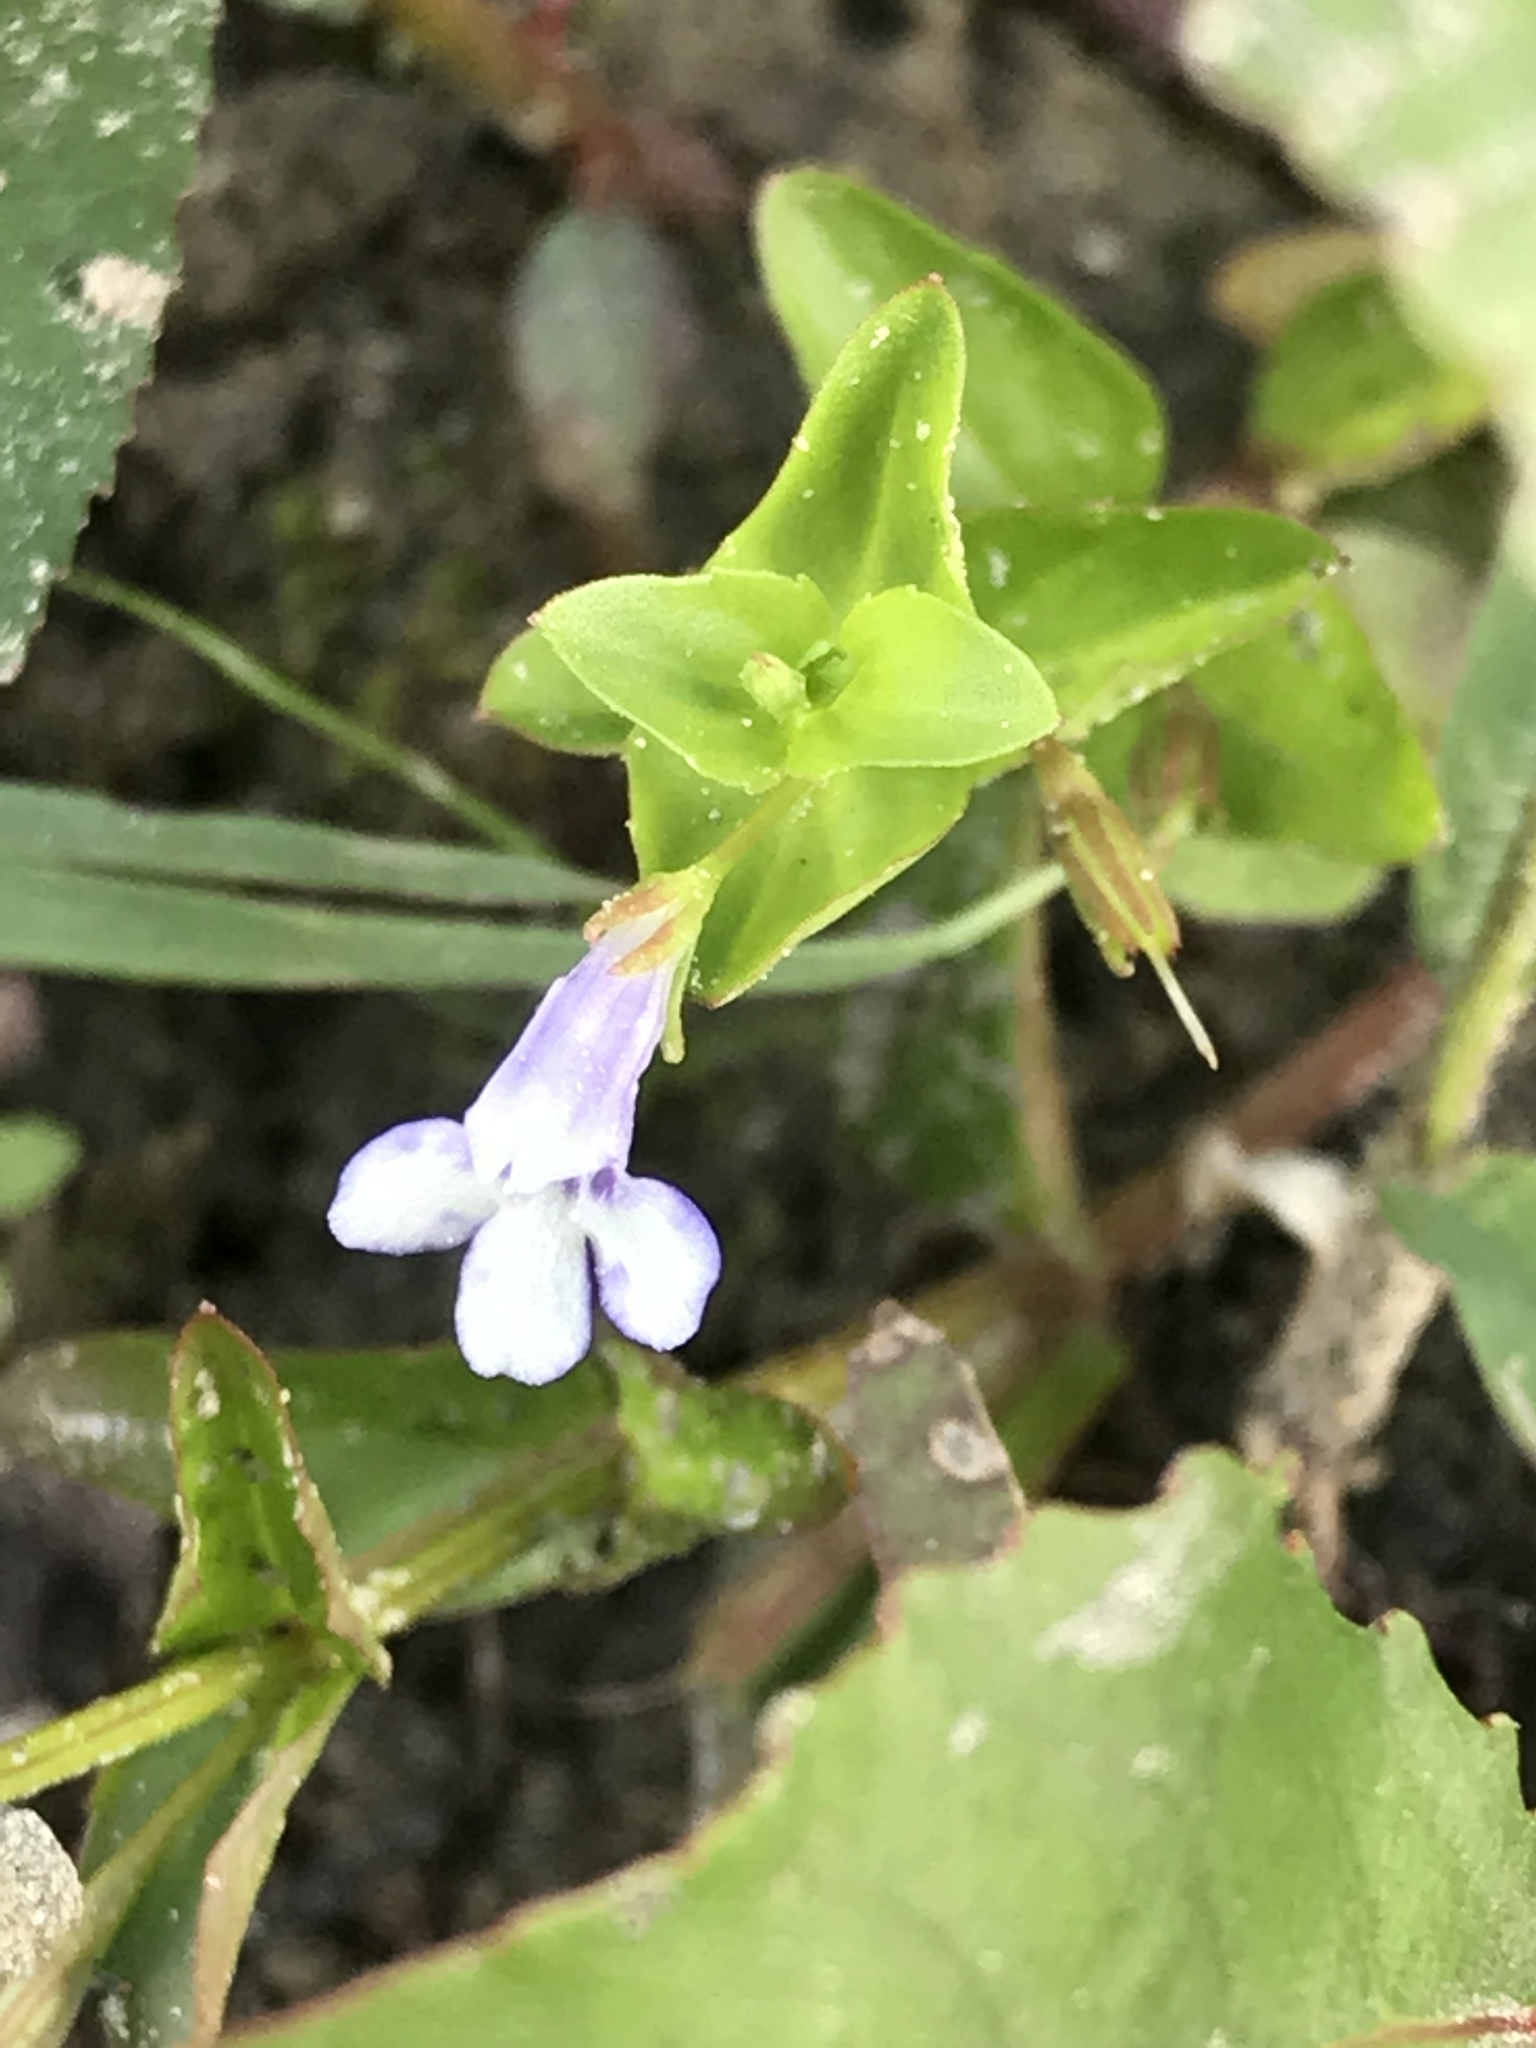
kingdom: Plantae
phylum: Tracheophyta
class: Magnoliopsida
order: Lamiales
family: Linderniaceae
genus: Lindernia
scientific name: Lindernia dubia
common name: Annual false pimpernel
